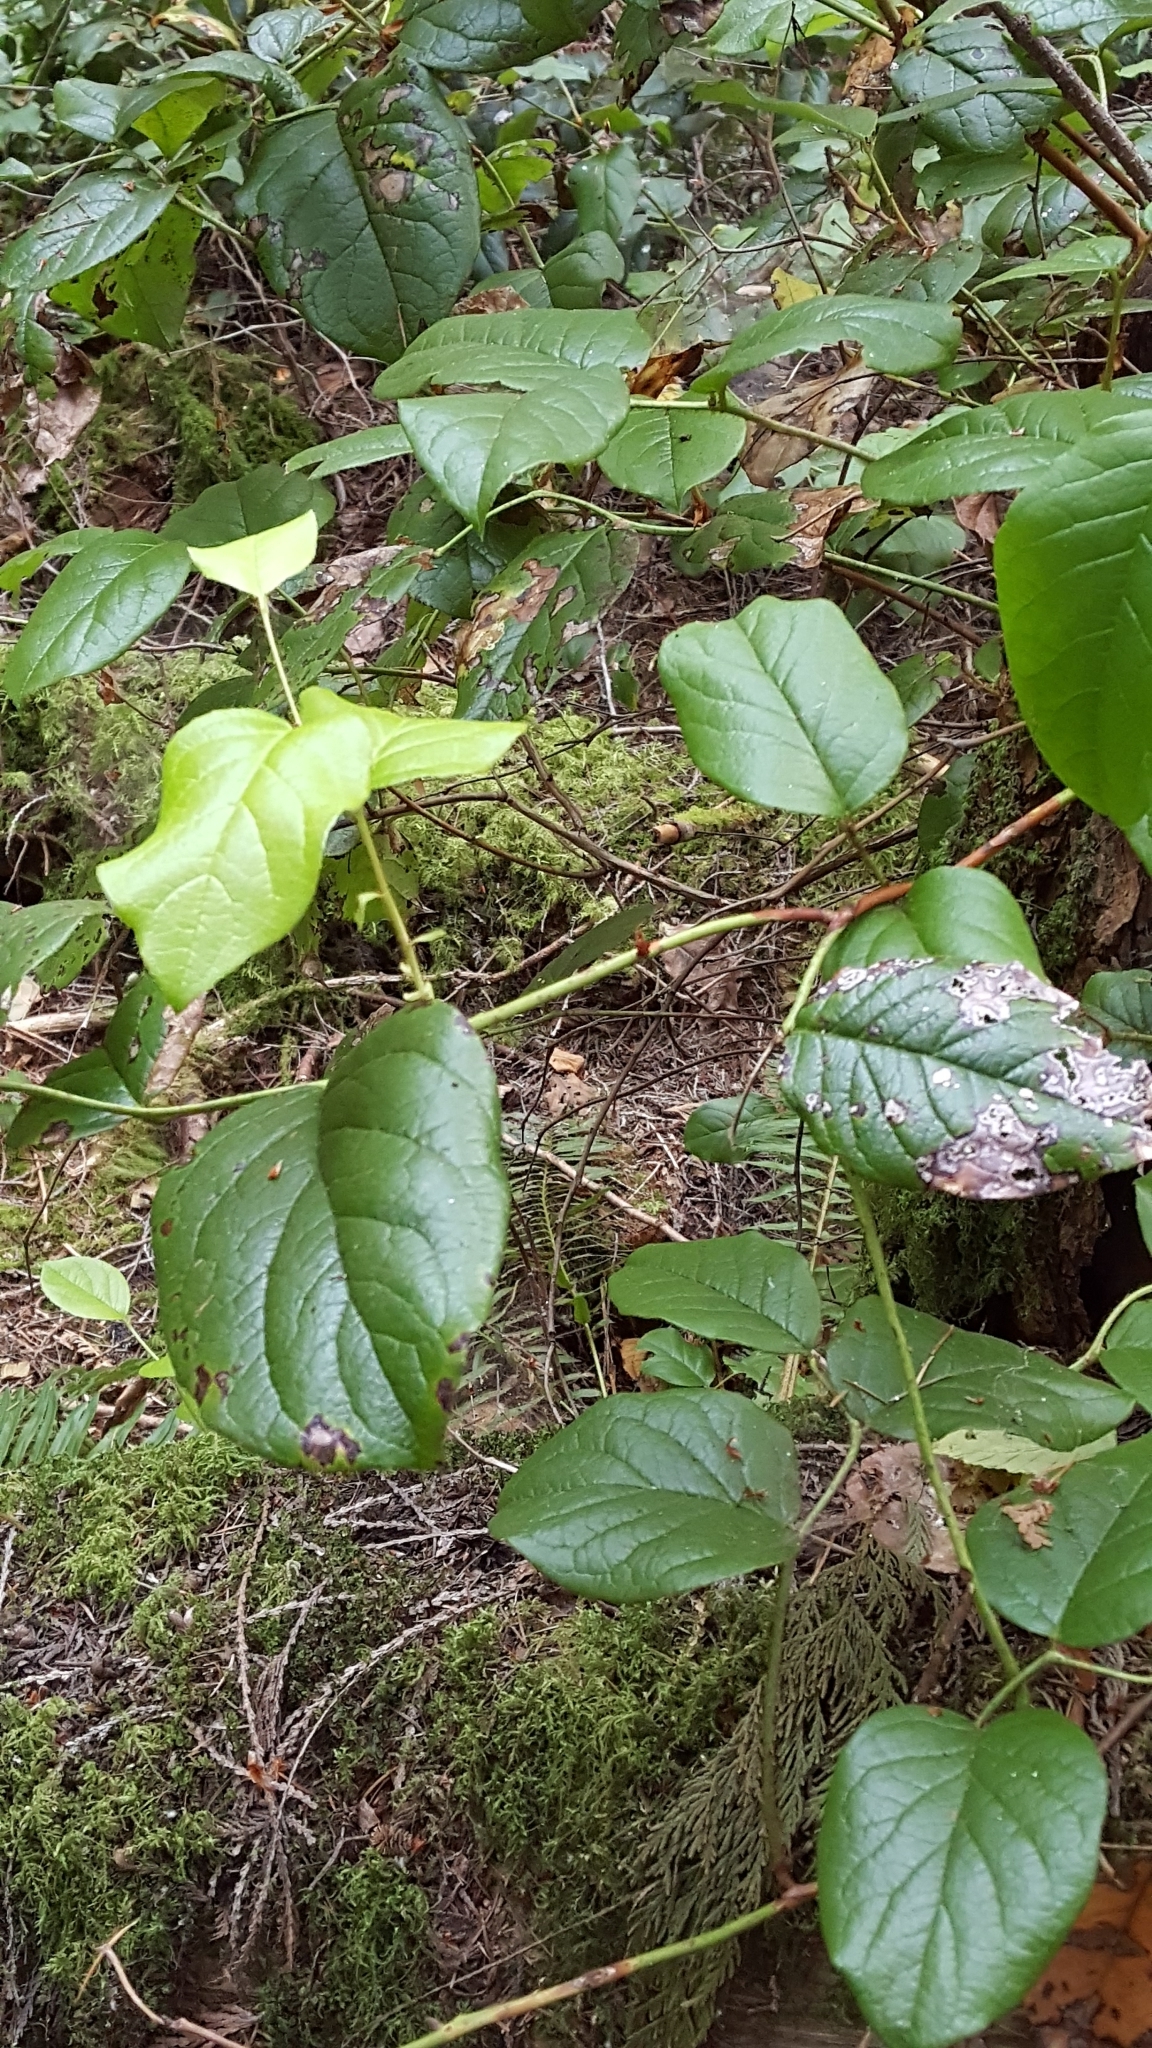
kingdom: Plantae
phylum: Tracheophyta
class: Magnoliopsida
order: Ericales
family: Ericaceae
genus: Gaultheria
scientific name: Gaultheria shallon
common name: Shallon
